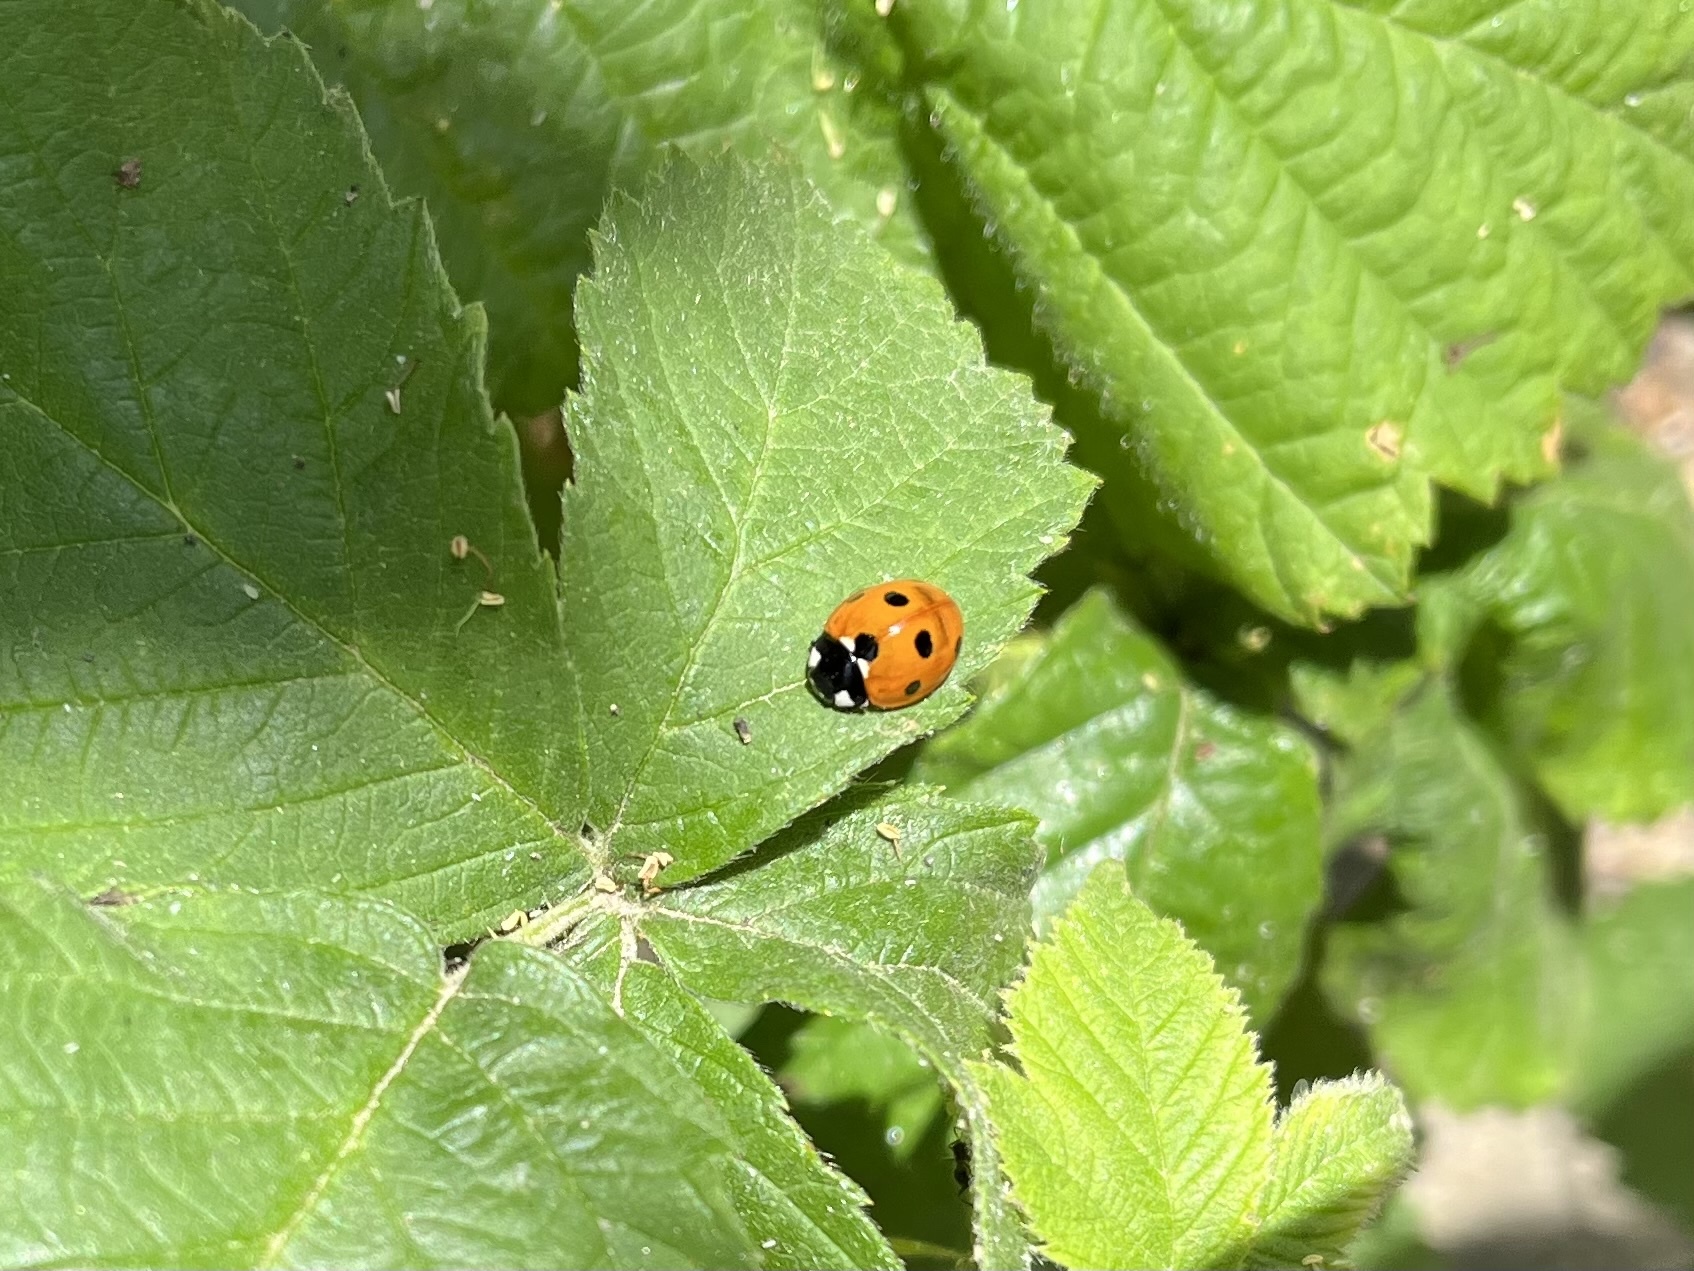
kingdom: Animalia
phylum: Arthropoda
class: Insecta
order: Coleoptera
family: Coccinellidae
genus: Coccinella
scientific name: Coccinella septempunctata
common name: Sevenspotted lady beetle
